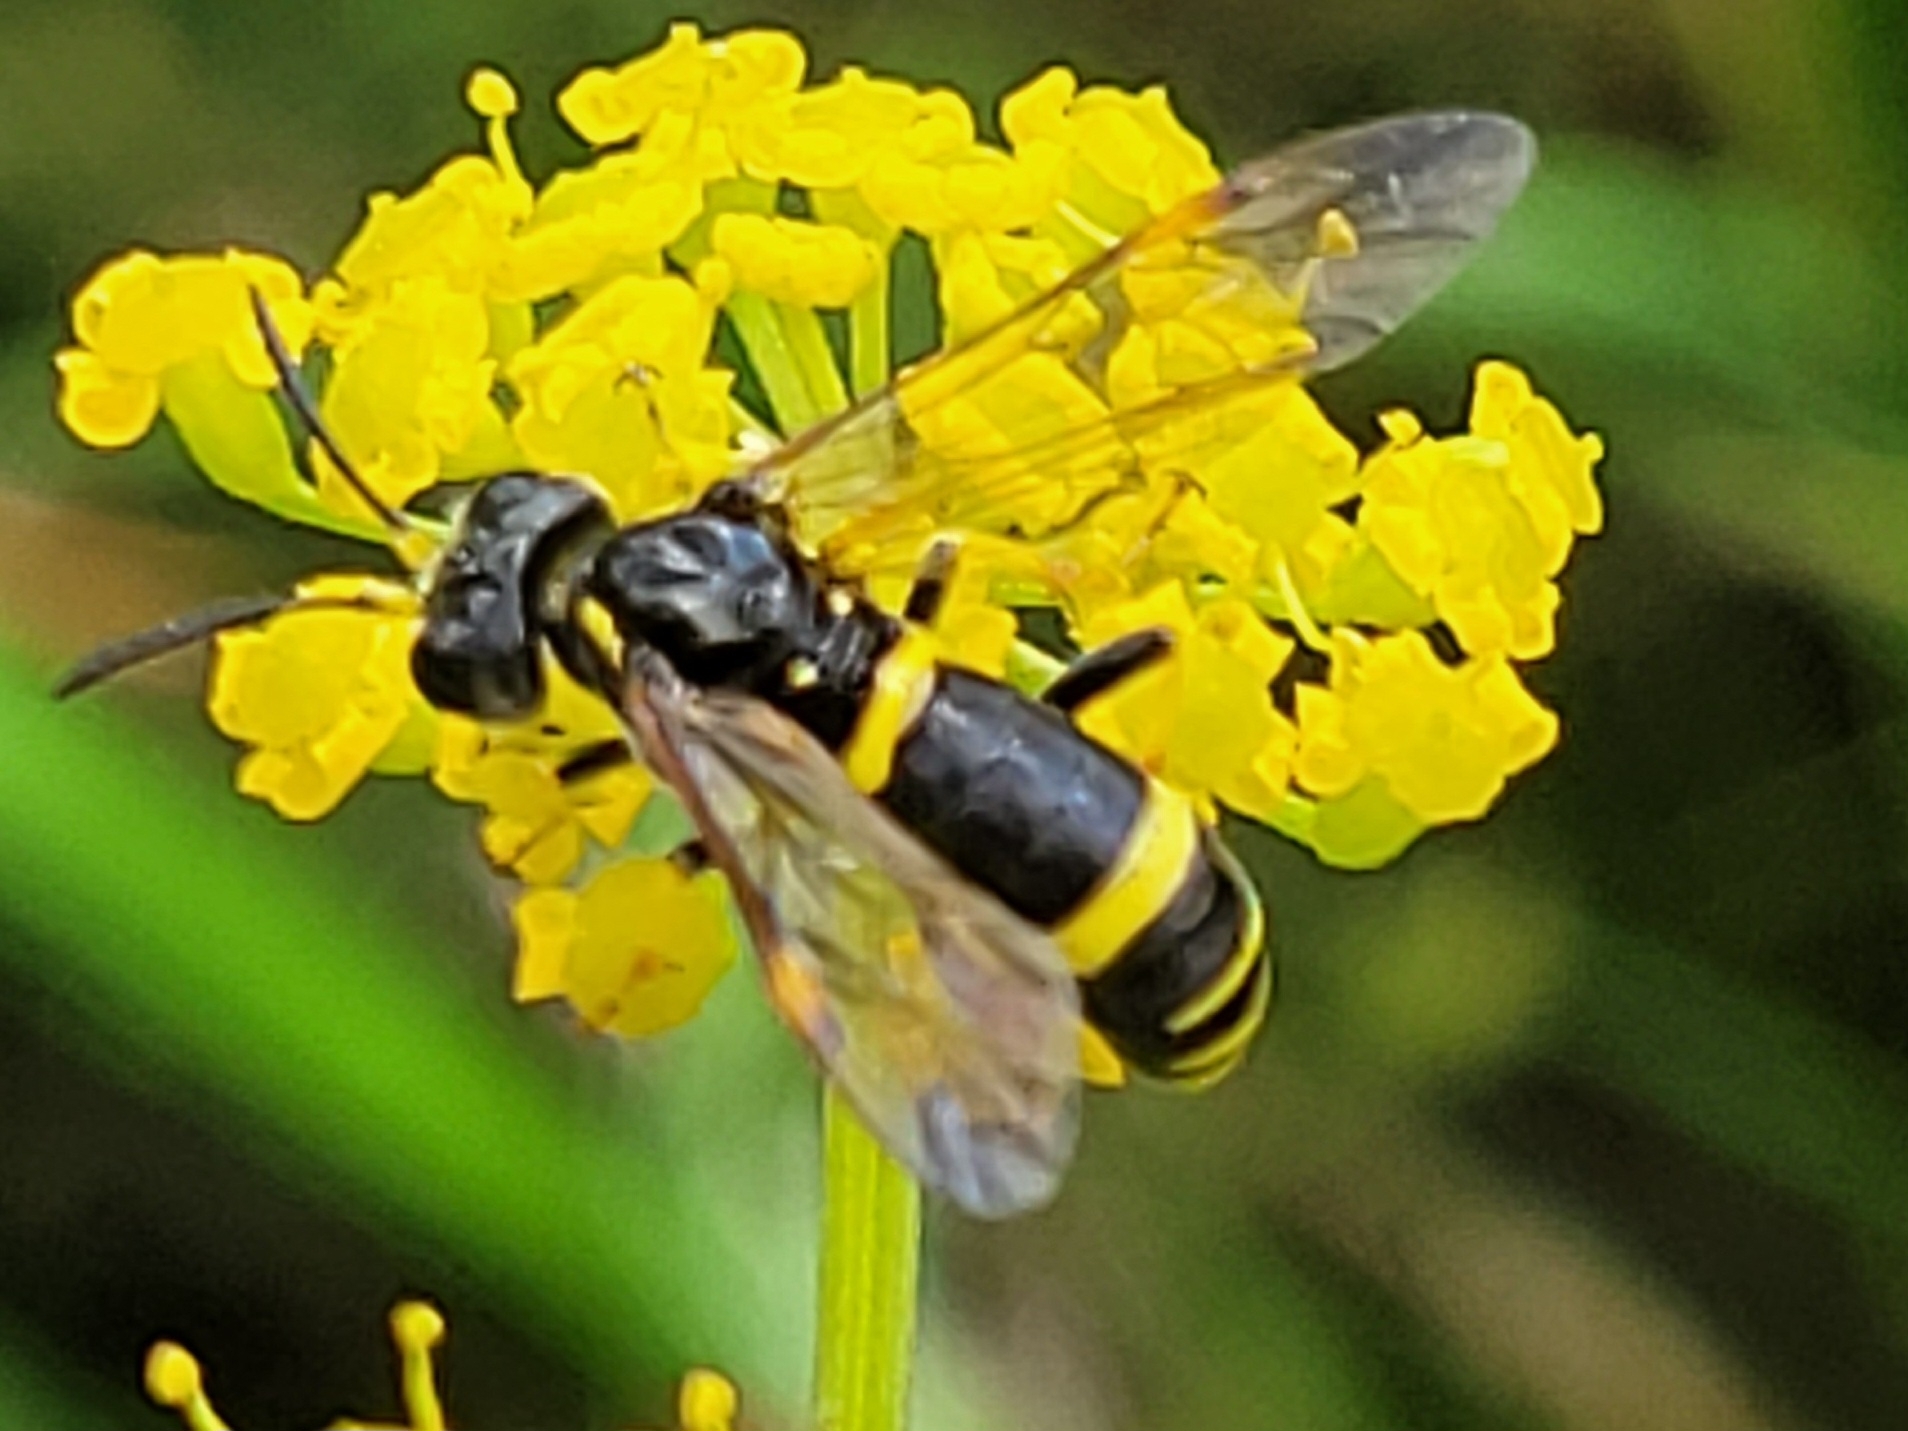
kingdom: Animalia
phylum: Arthropoda
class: Insecta
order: Hymenoptera
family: Tenthredinidae
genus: Tenthredo
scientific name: Tenthredo amoena
